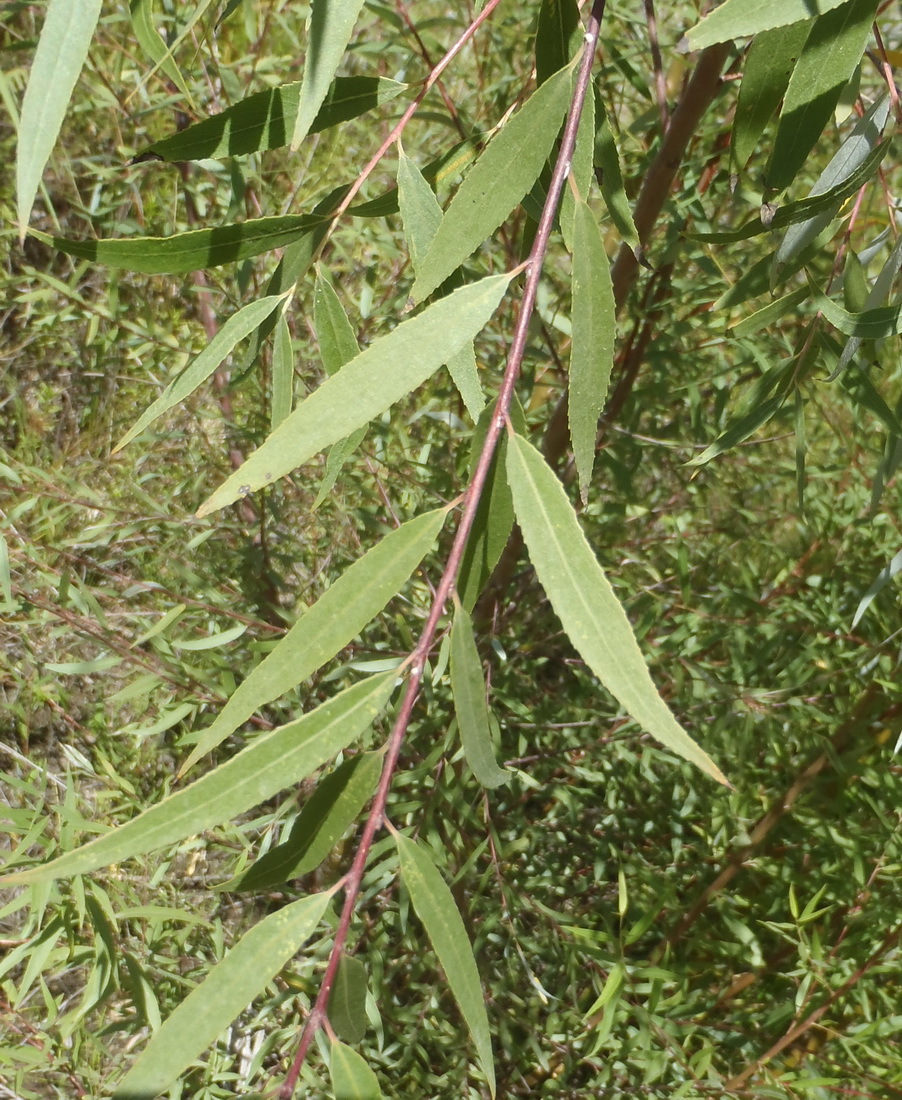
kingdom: Plantae
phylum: Tracheophyta
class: Magnoliopsida
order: Malpighiales
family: Salicaceae
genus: Salix
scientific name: Salix mucronata
